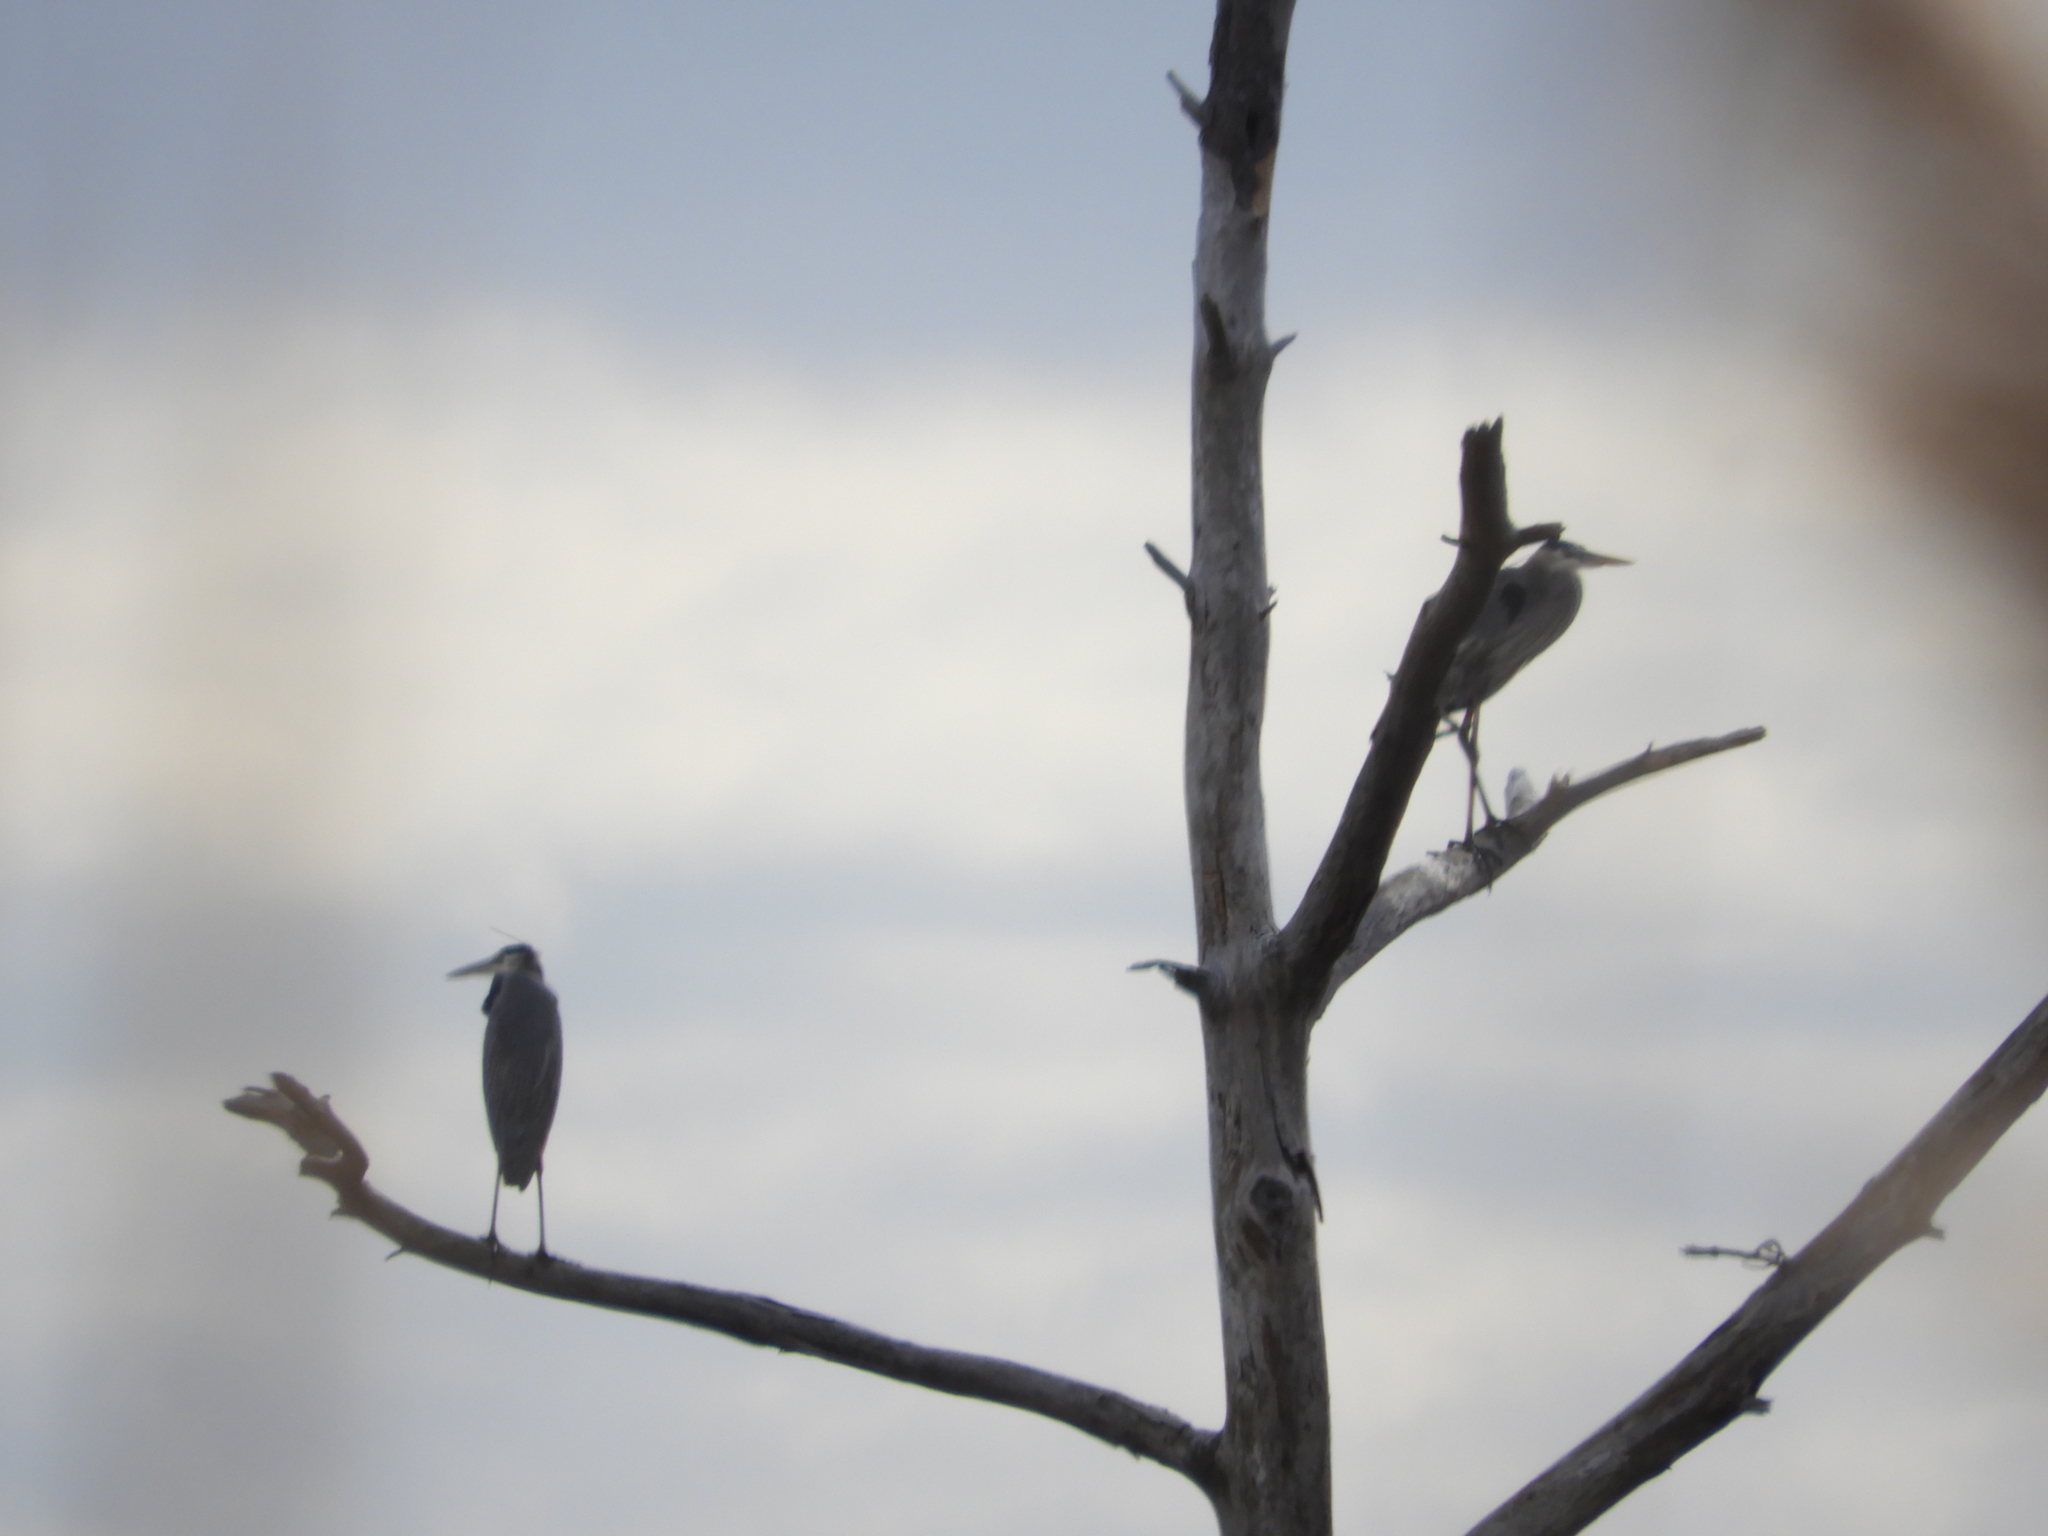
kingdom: Animalia
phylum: Chordata
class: Aves
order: Pelecaniformes
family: Ardeidae
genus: Ardea
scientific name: Ardea herodias
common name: Great blue heron
